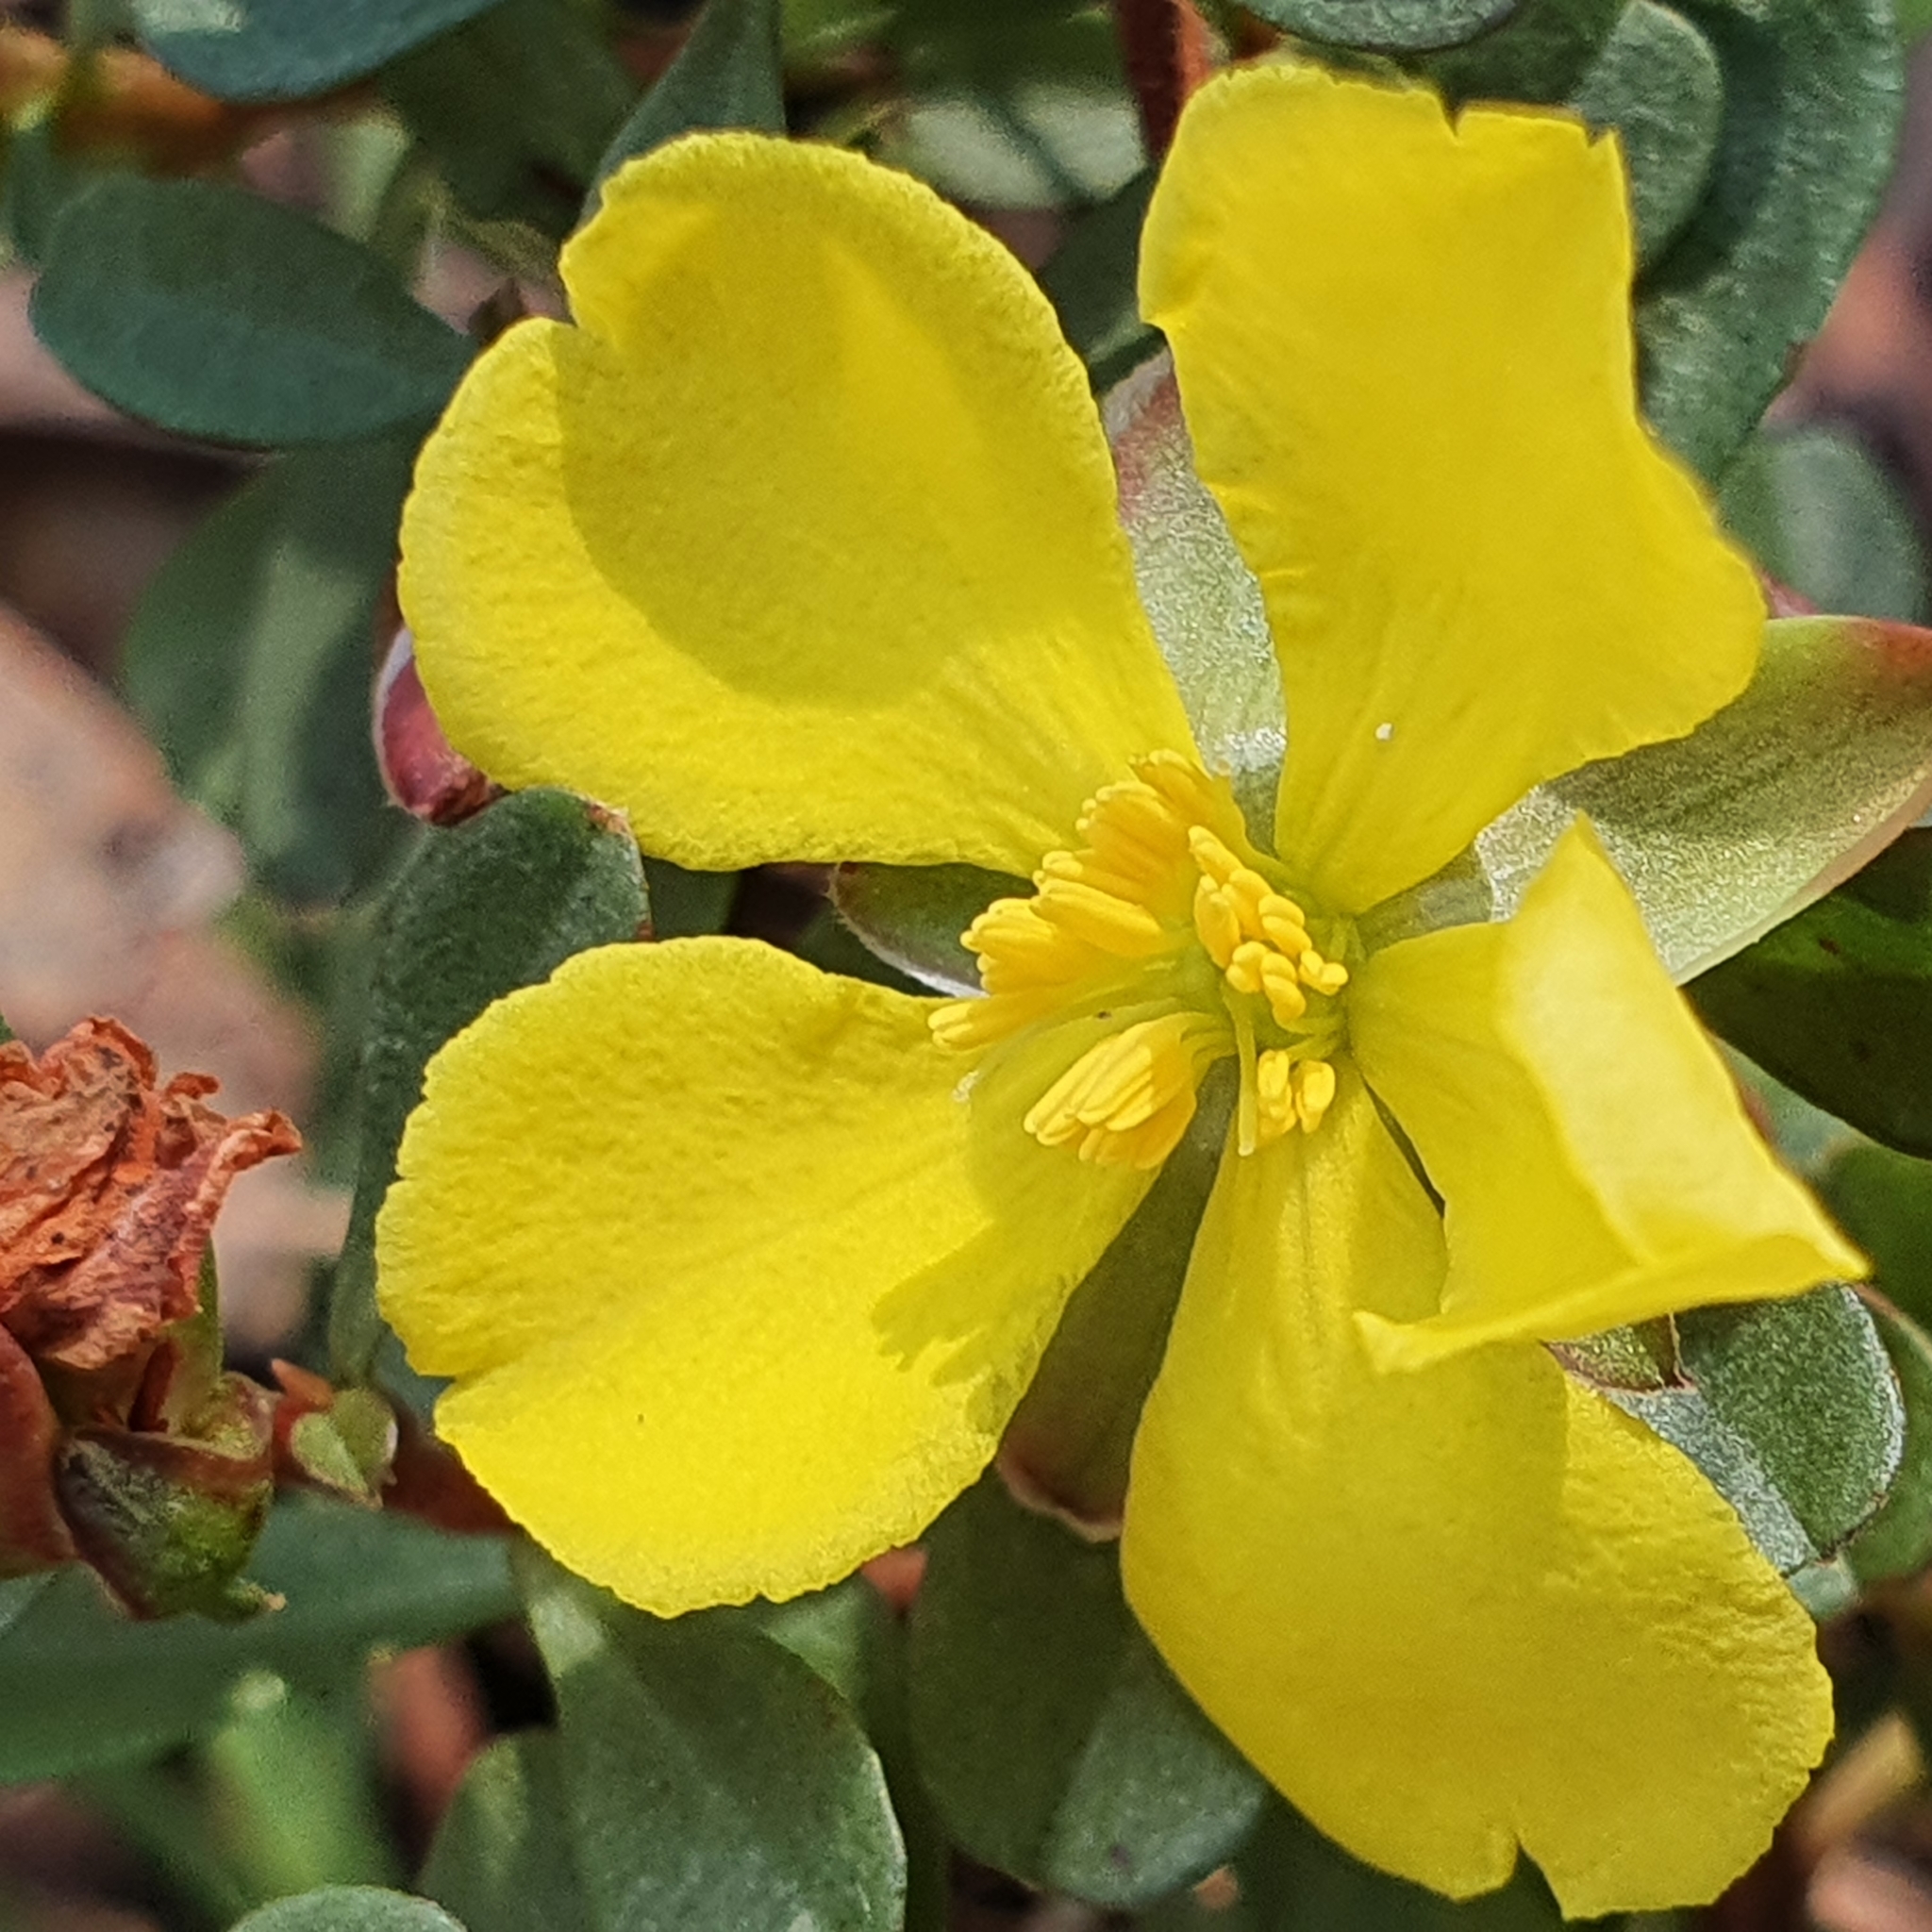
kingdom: Plantae
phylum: Tracheophyta
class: Magnoliopsida
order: Dilleniales
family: Dilleniaceae
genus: Hibbertia
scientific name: Hibbertia diffusa
